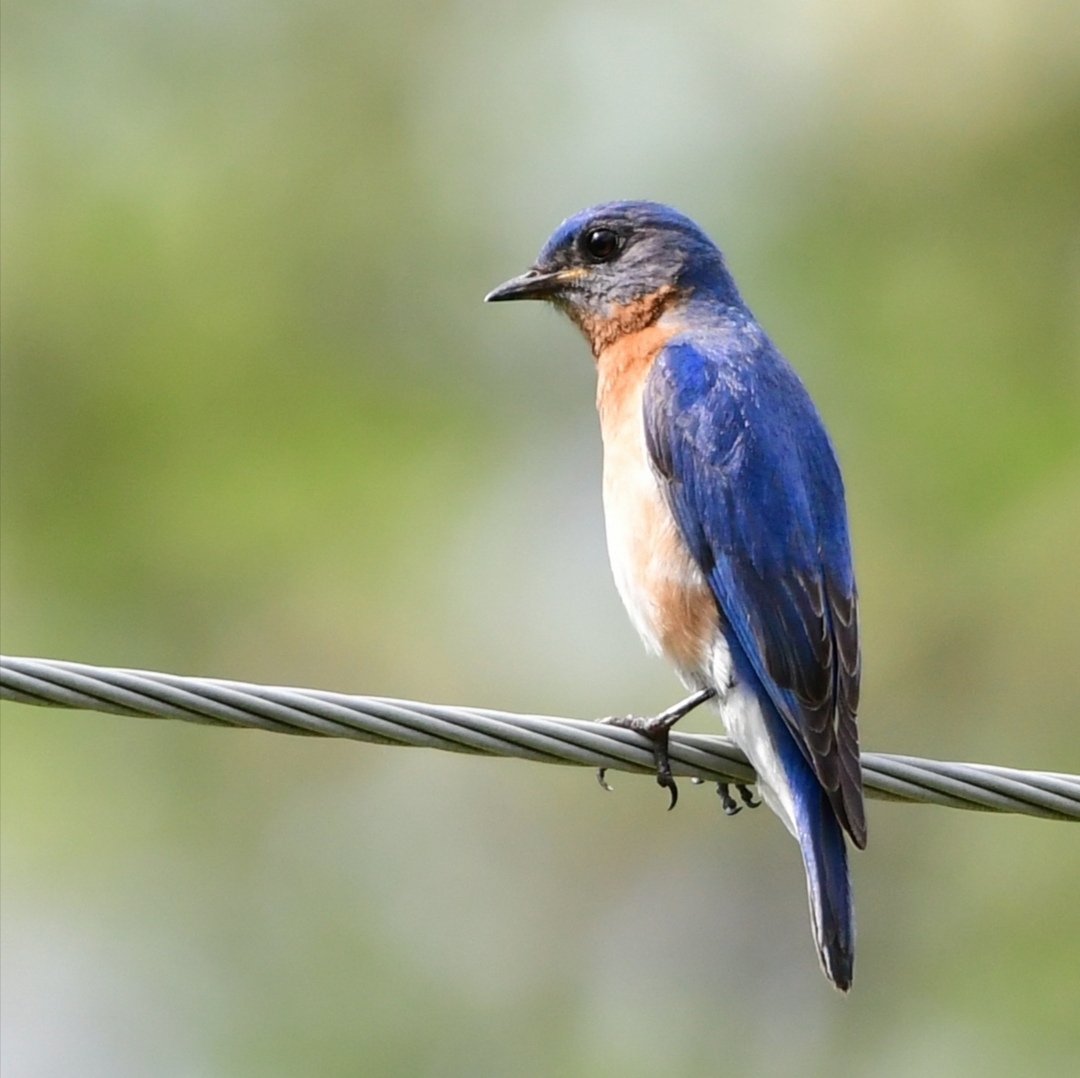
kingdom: Animalia
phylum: Chordata
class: Aves
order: Passeriformes
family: Turdidae
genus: Sialia
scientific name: Sialia sialis
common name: Eastern bluebird
